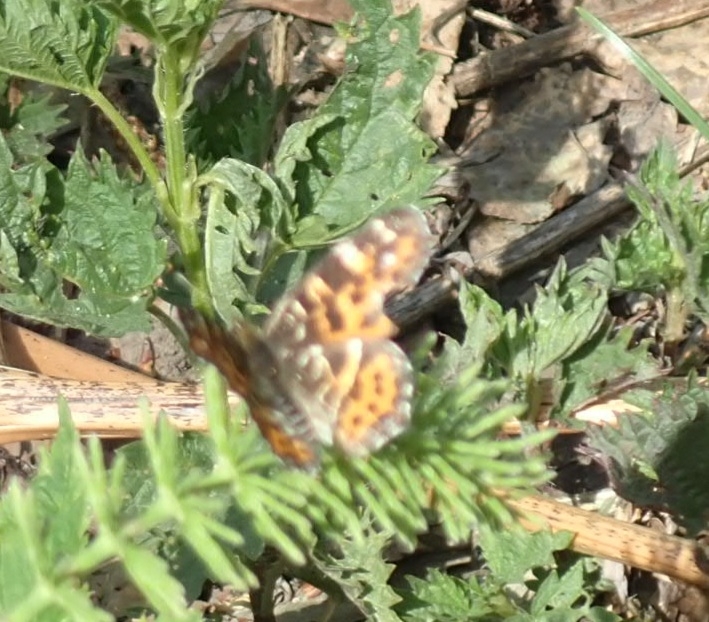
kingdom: Animalia
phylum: Arthropoda
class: Insecta
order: Lepidoptera
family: Nymphalidae
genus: Araschnia
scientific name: Araschnia levana
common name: Map butterfly
